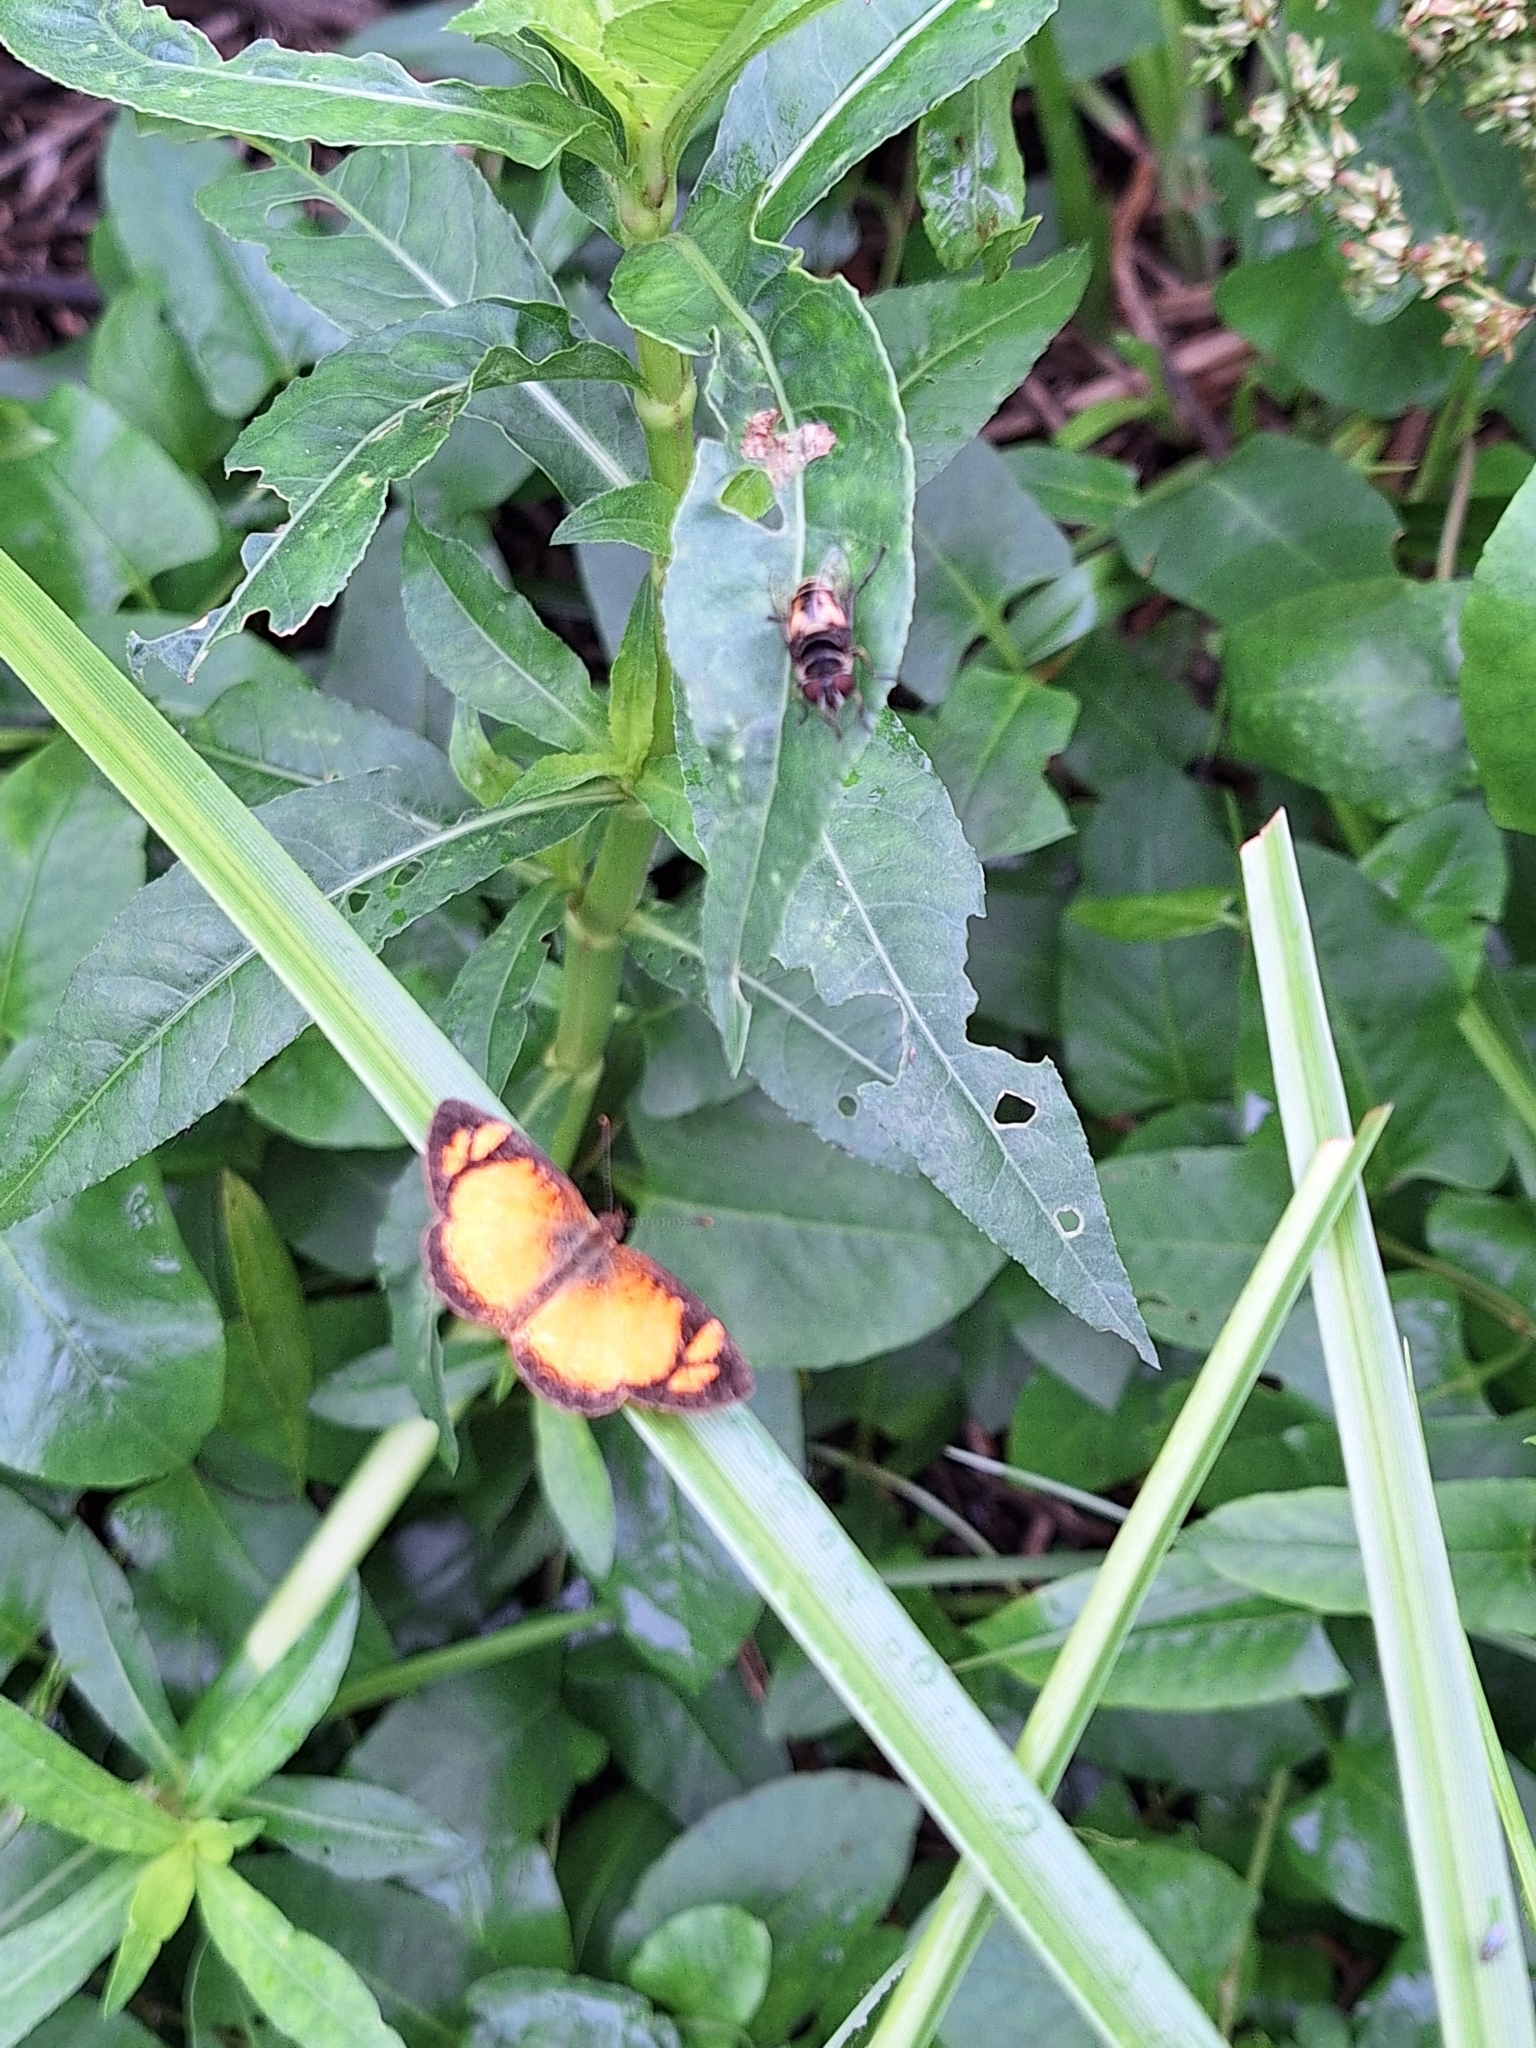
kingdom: Animalia
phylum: Arthropoda
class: Insecta
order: Lepidoptera
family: Nymphalidae
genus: Tegosa
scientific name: Tegosa claudina
